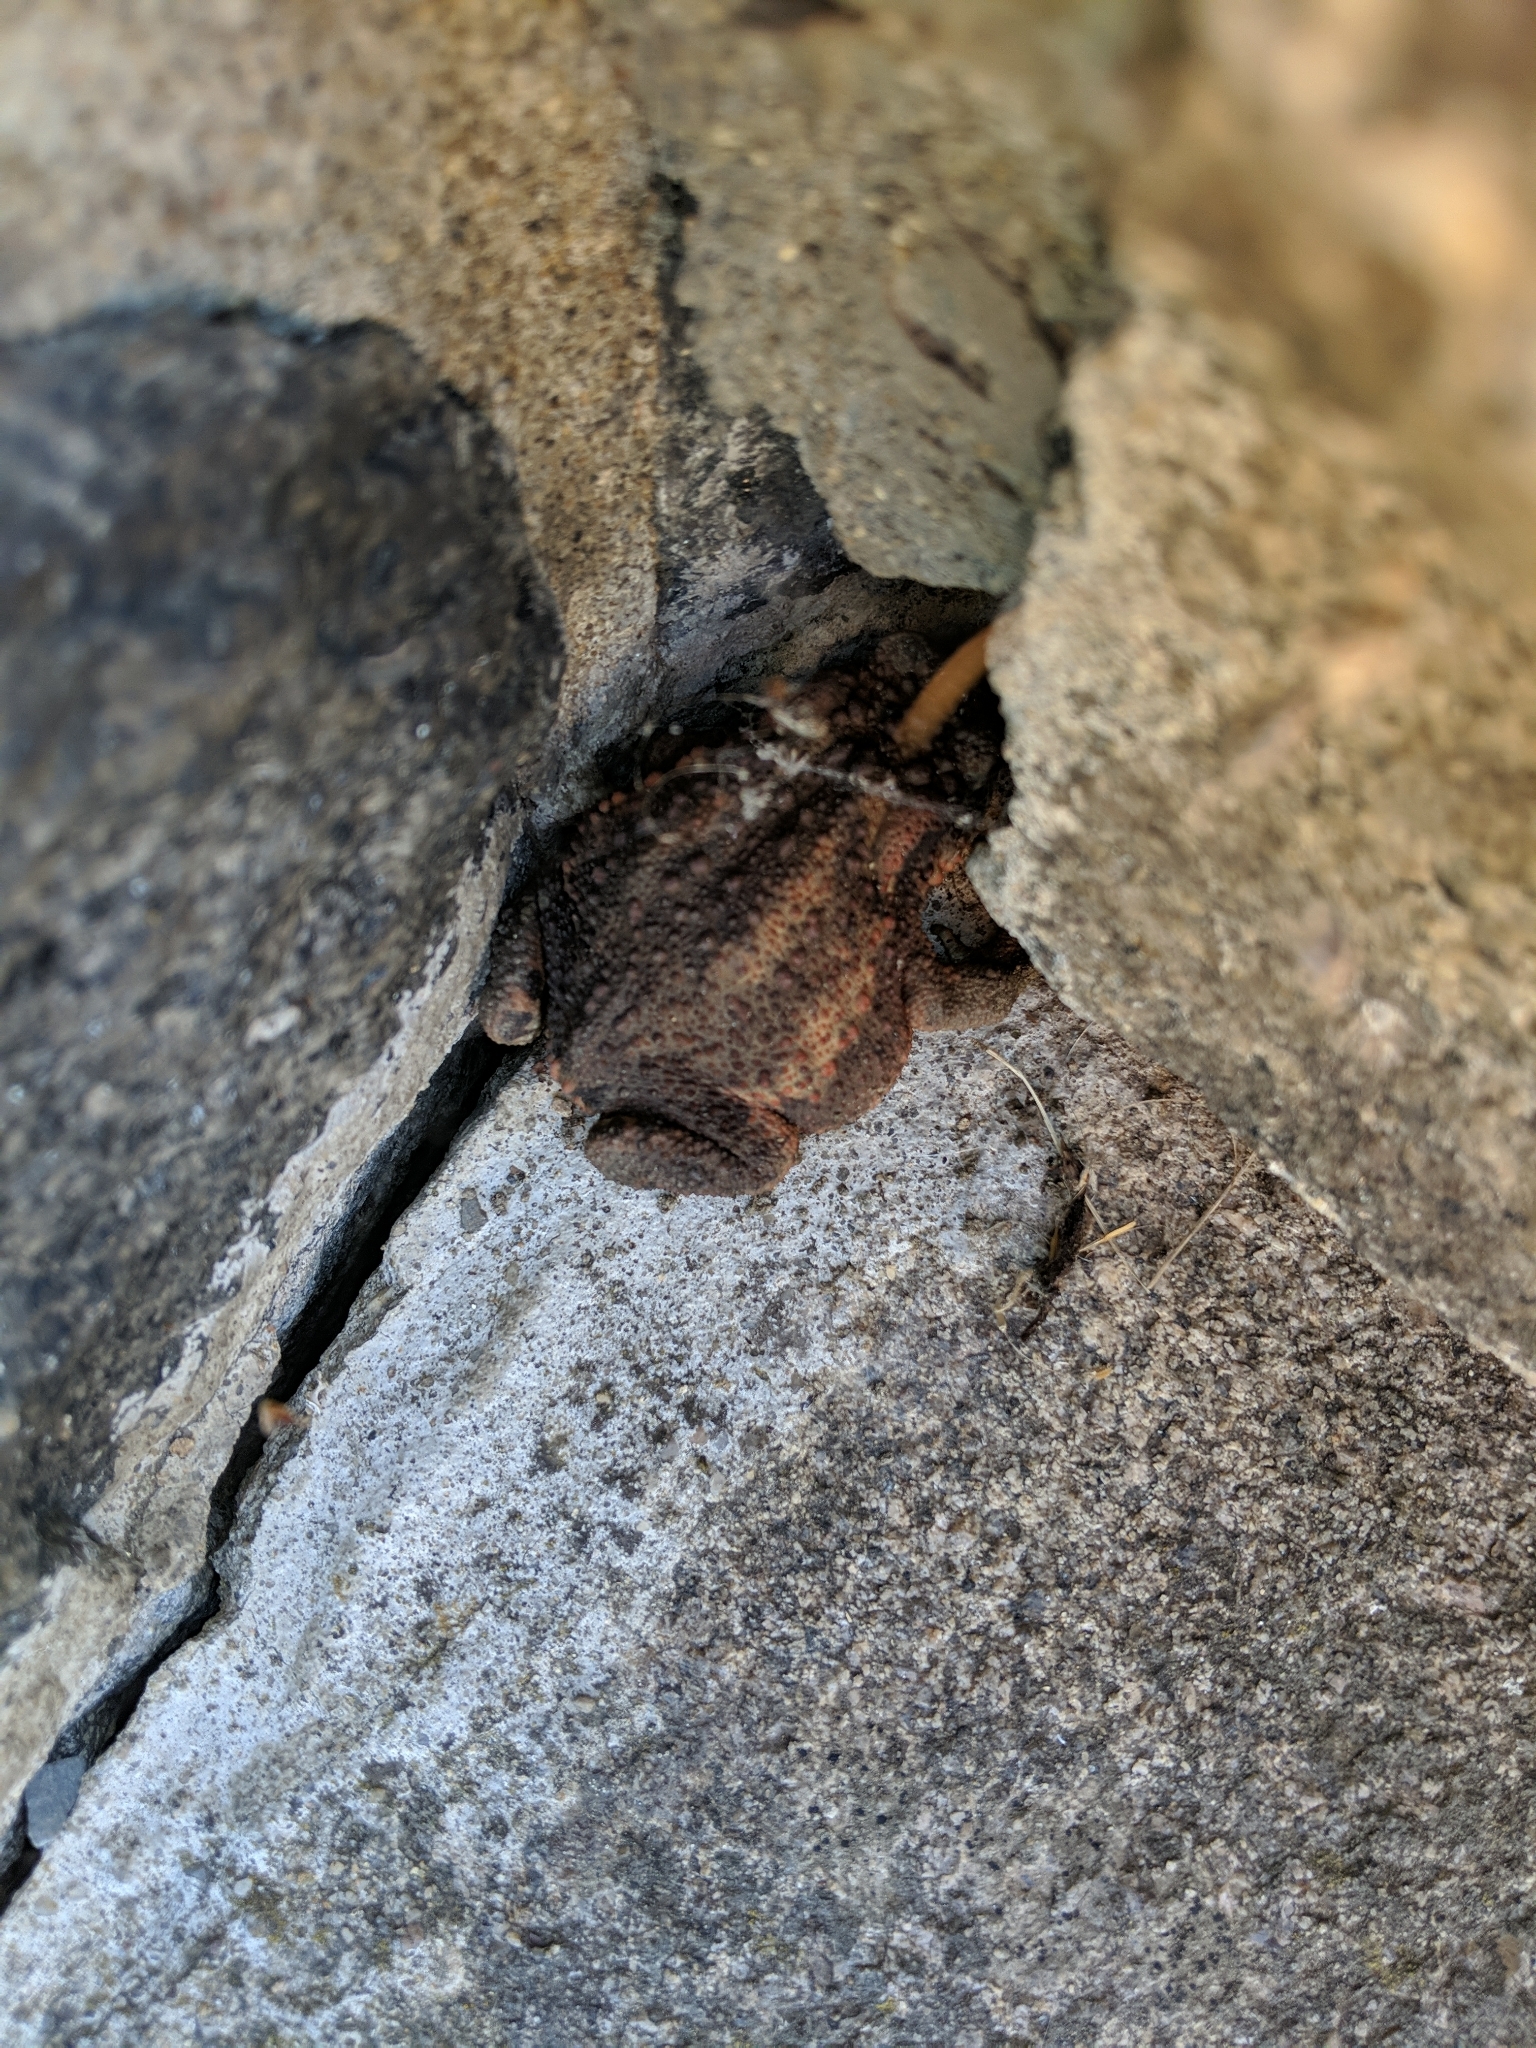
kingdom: Animalia
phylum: Chordata
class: Amphibia
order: Anura
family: Bufonidae
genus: Bufo
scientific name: Bufo bufo
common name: Common toad
